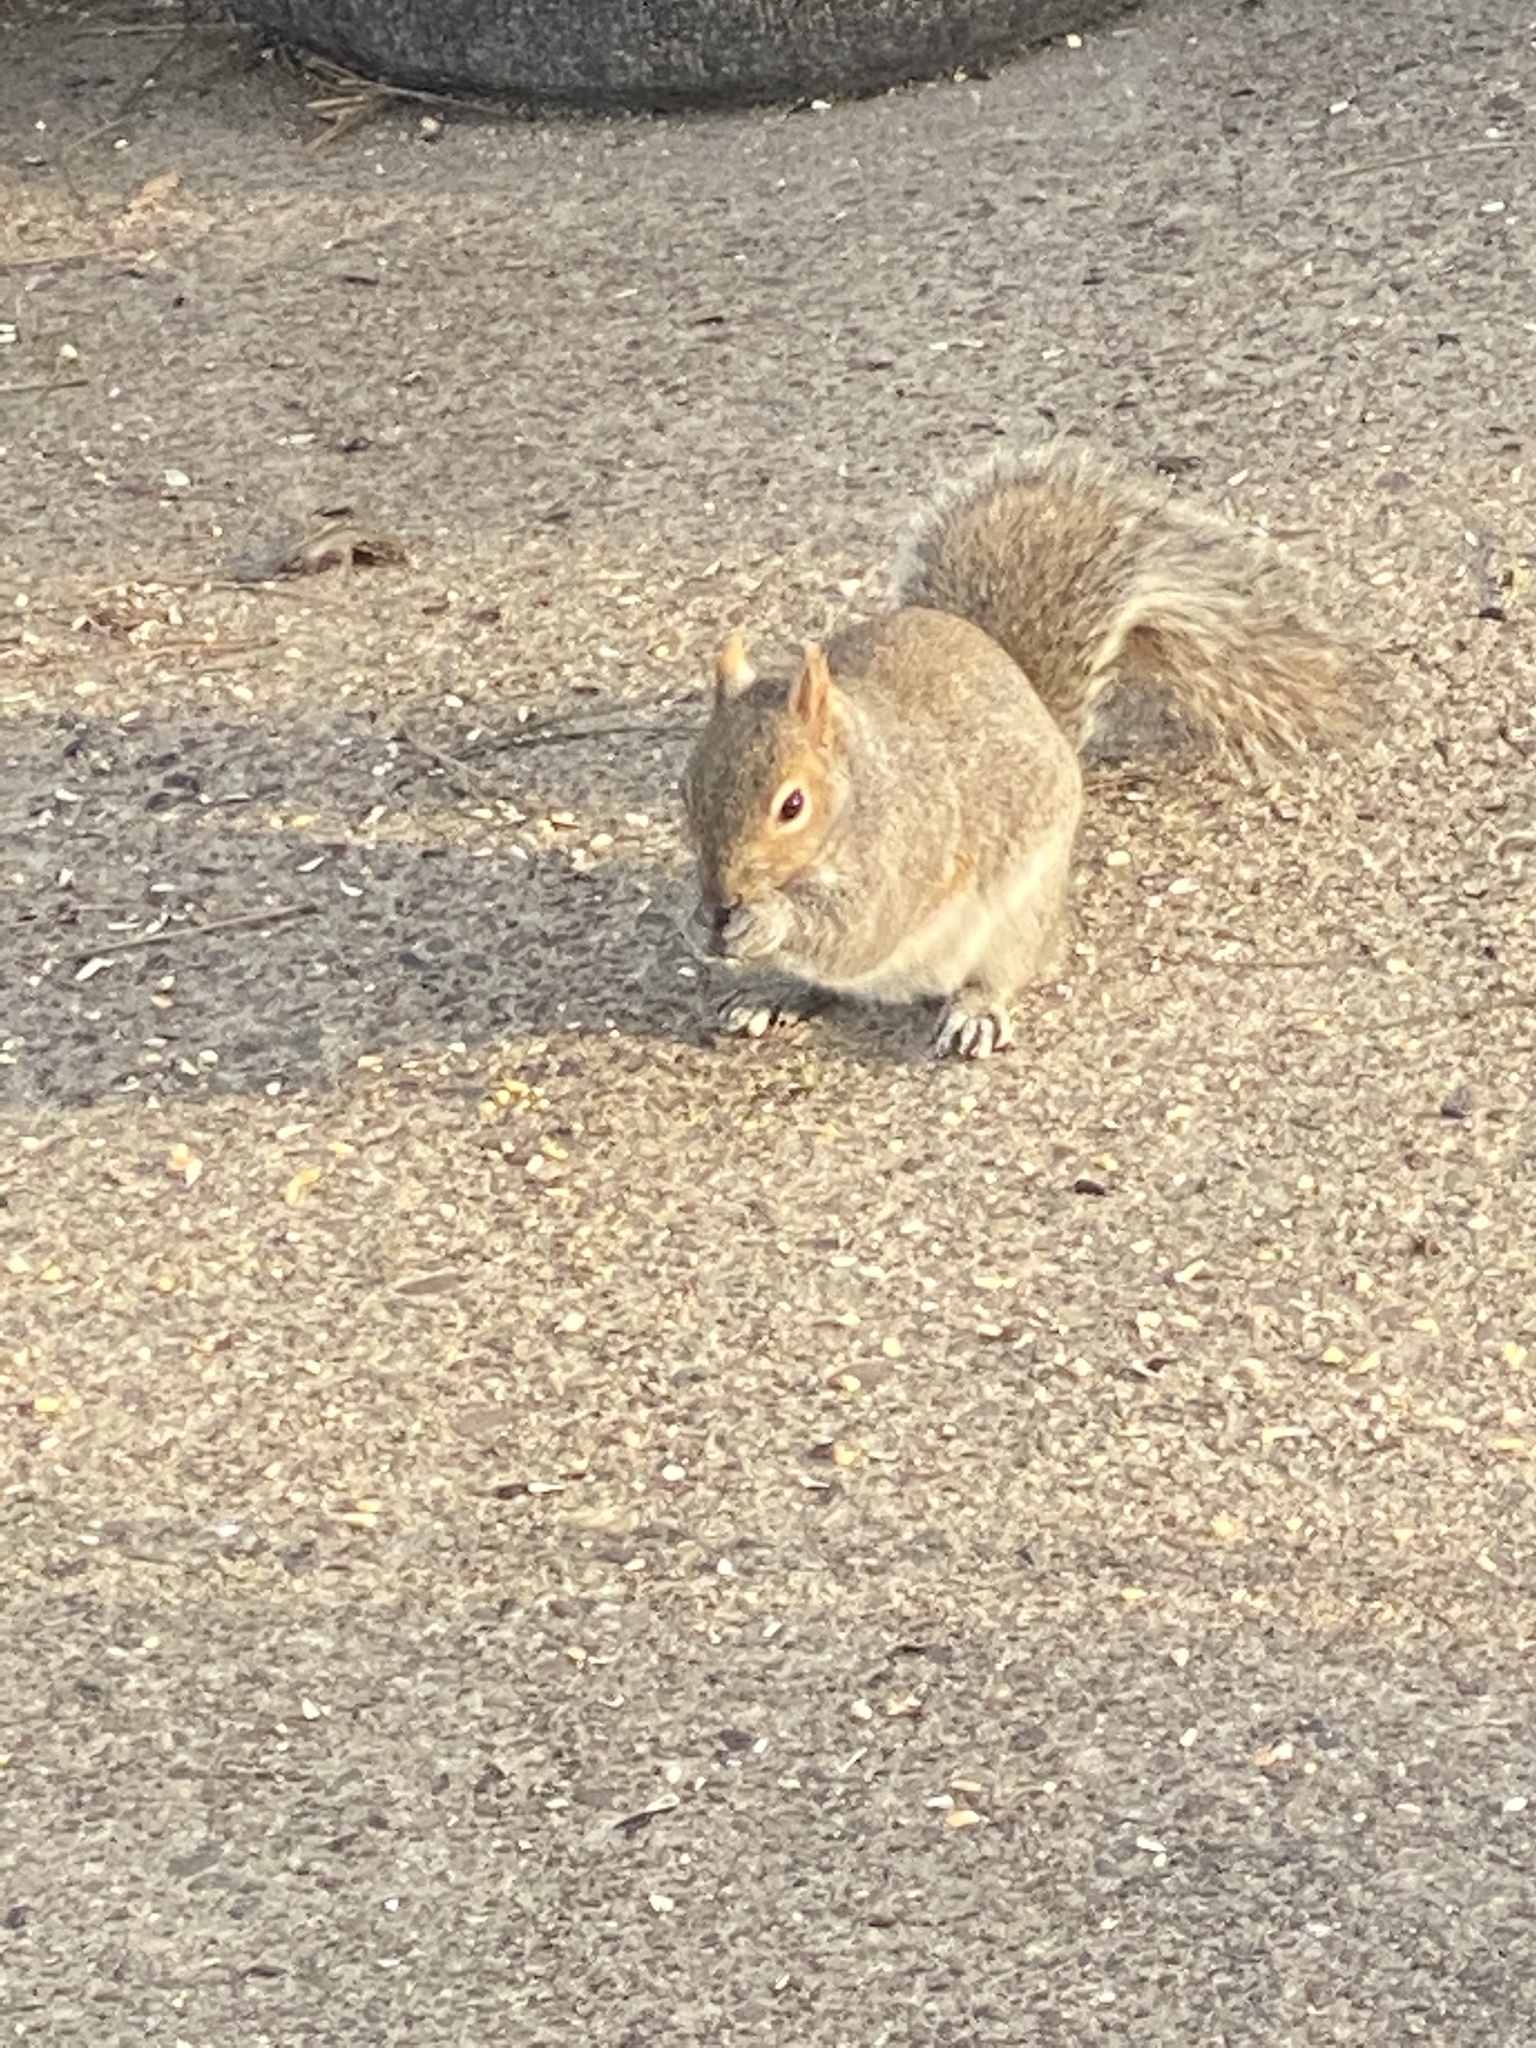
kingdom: Animalia
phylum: Chordata
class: Mammalia
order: Rodentia
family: Sciuridae
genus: Sciurus
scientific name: Sciurus carolinensis
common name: Eastern gray squirrel
